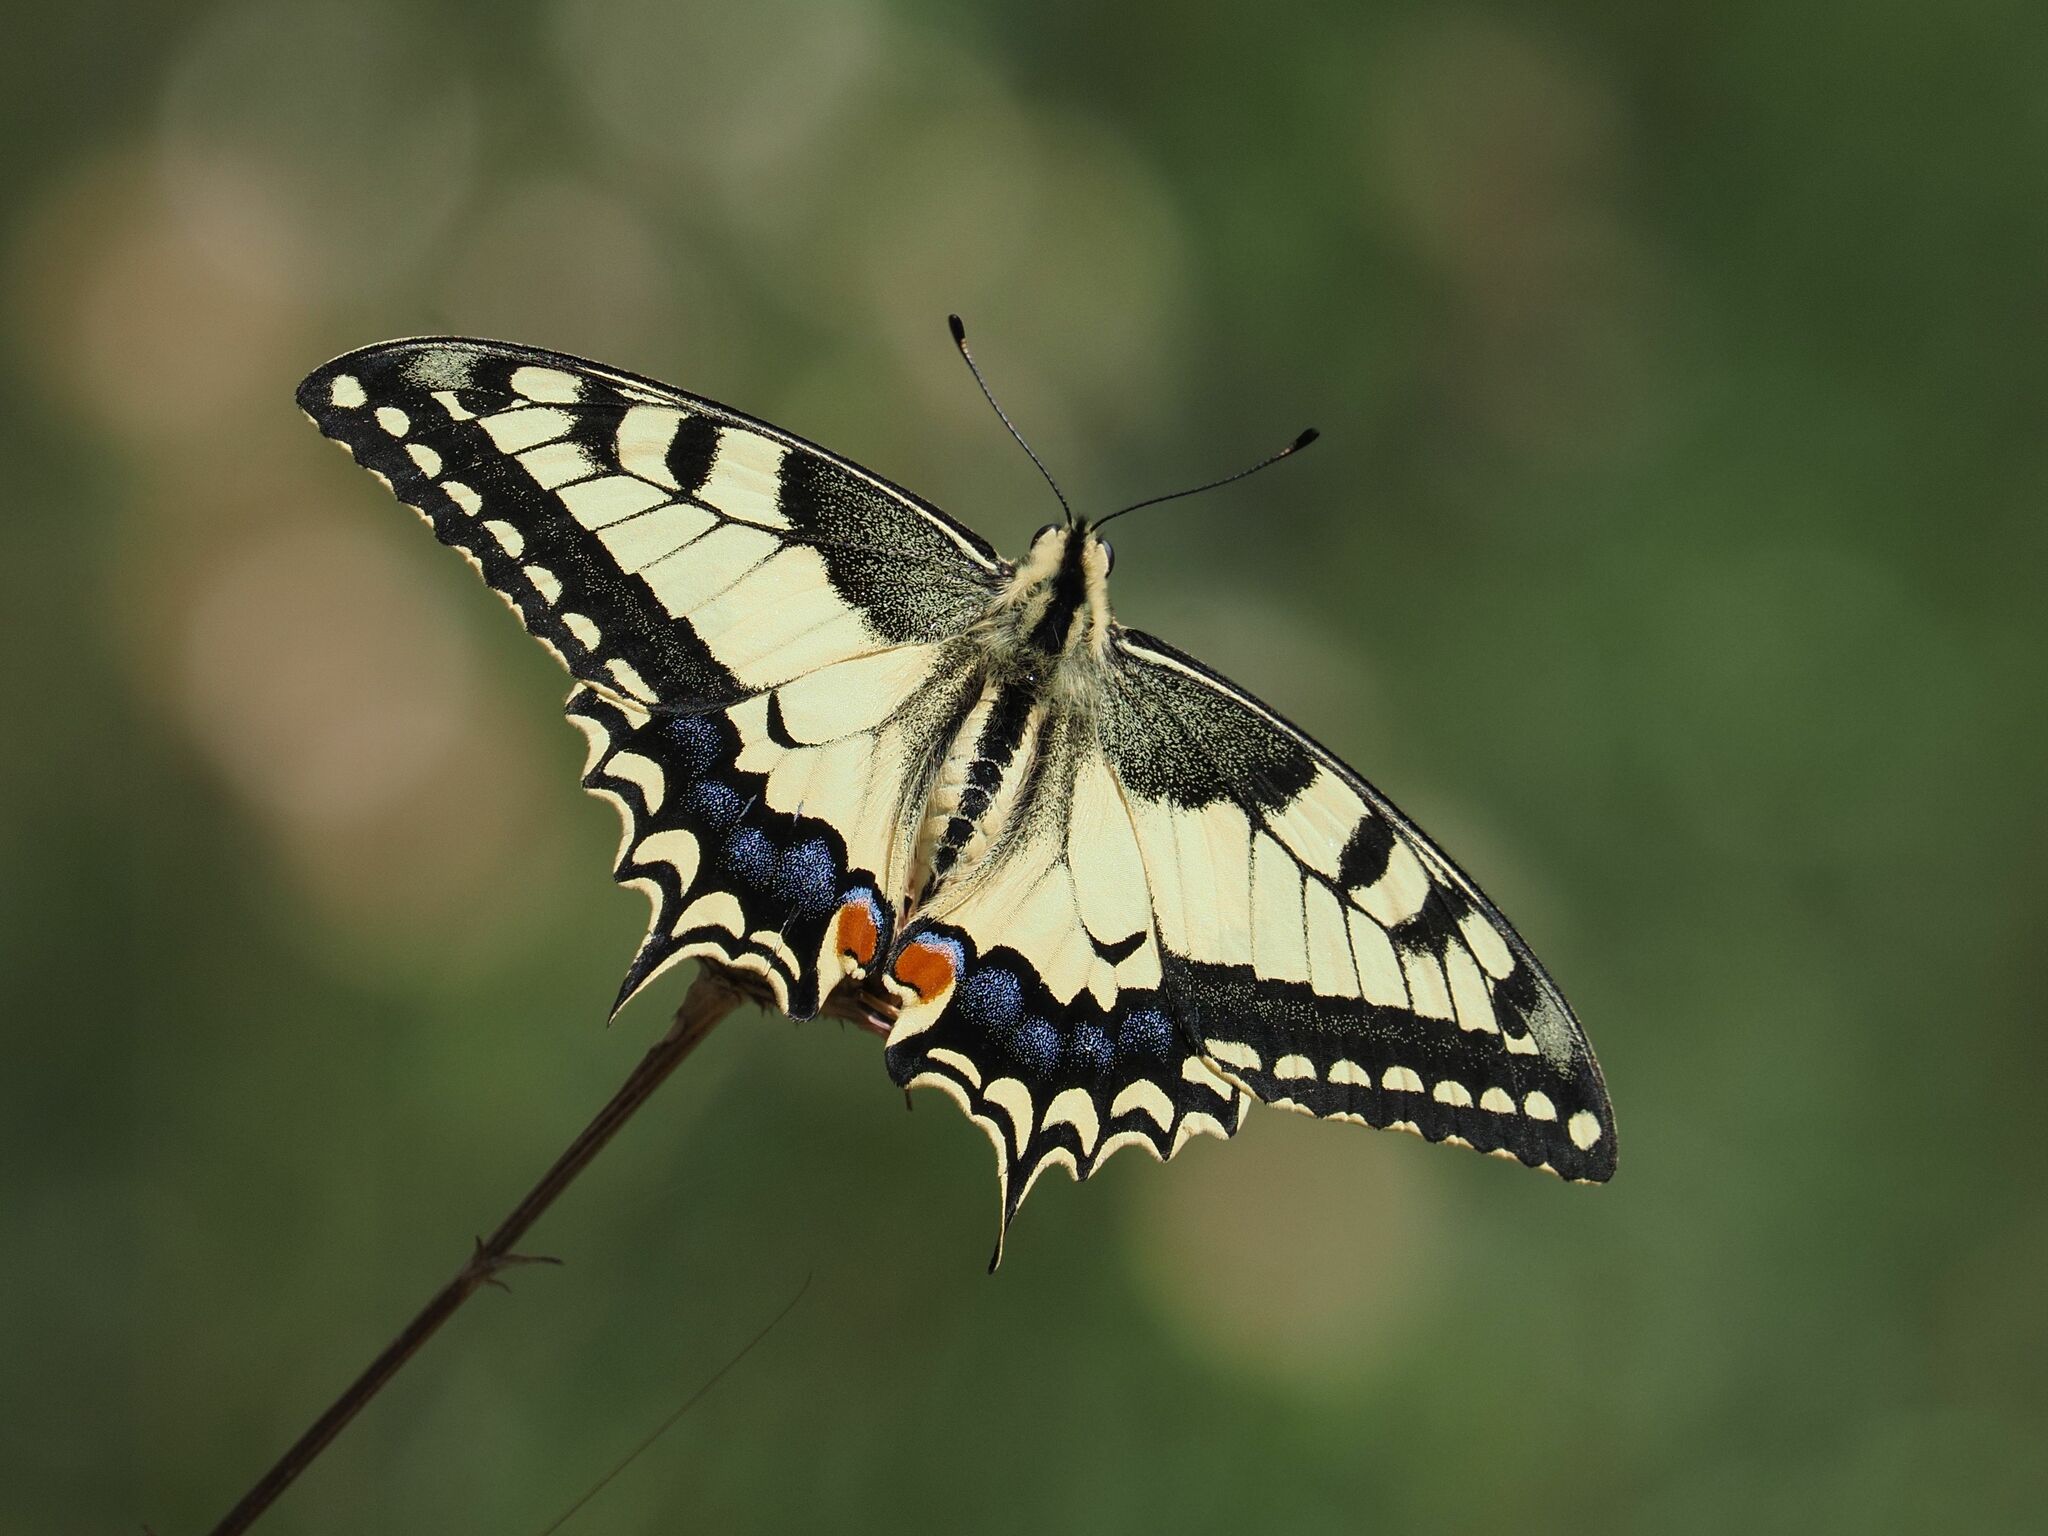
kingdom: Animalia
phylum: Arthropoda
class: Insecta
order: Lepidoptera
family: Papilionidae
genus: Papilio
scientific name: Papilio machaon
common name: Swallowtail
